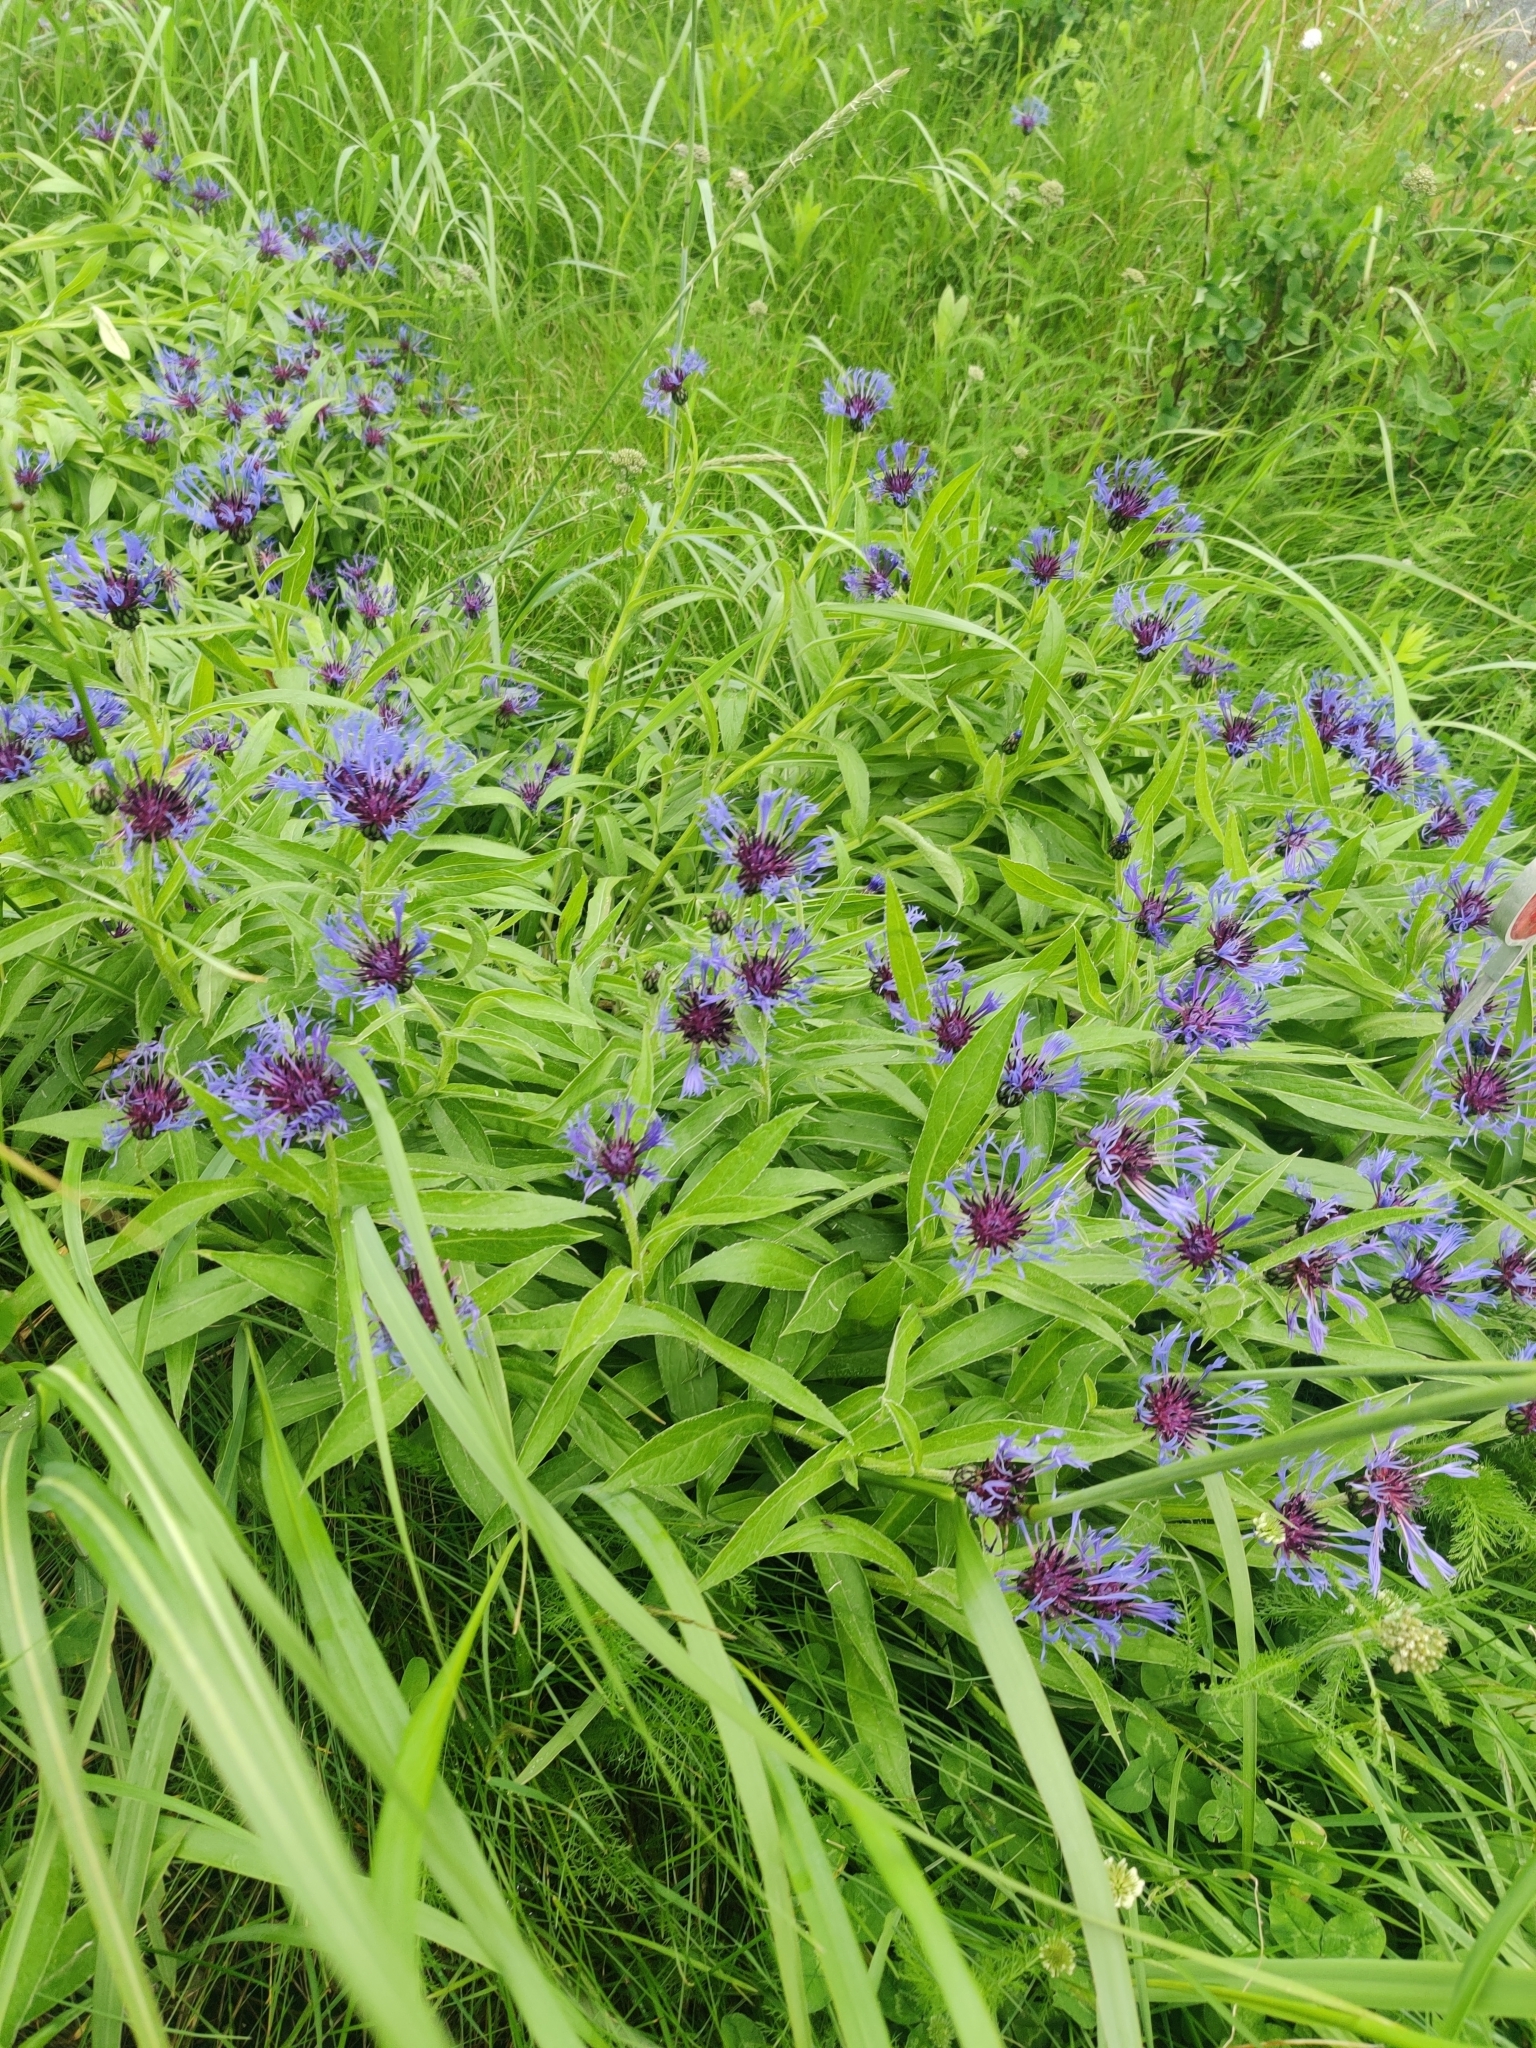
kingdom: Plantae
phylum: Tracheophyta
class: Magnoliopsida
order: Asterales
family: Asteraceae
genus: Centaurea
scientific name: Centaurea montana
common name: Perennial cornflower
